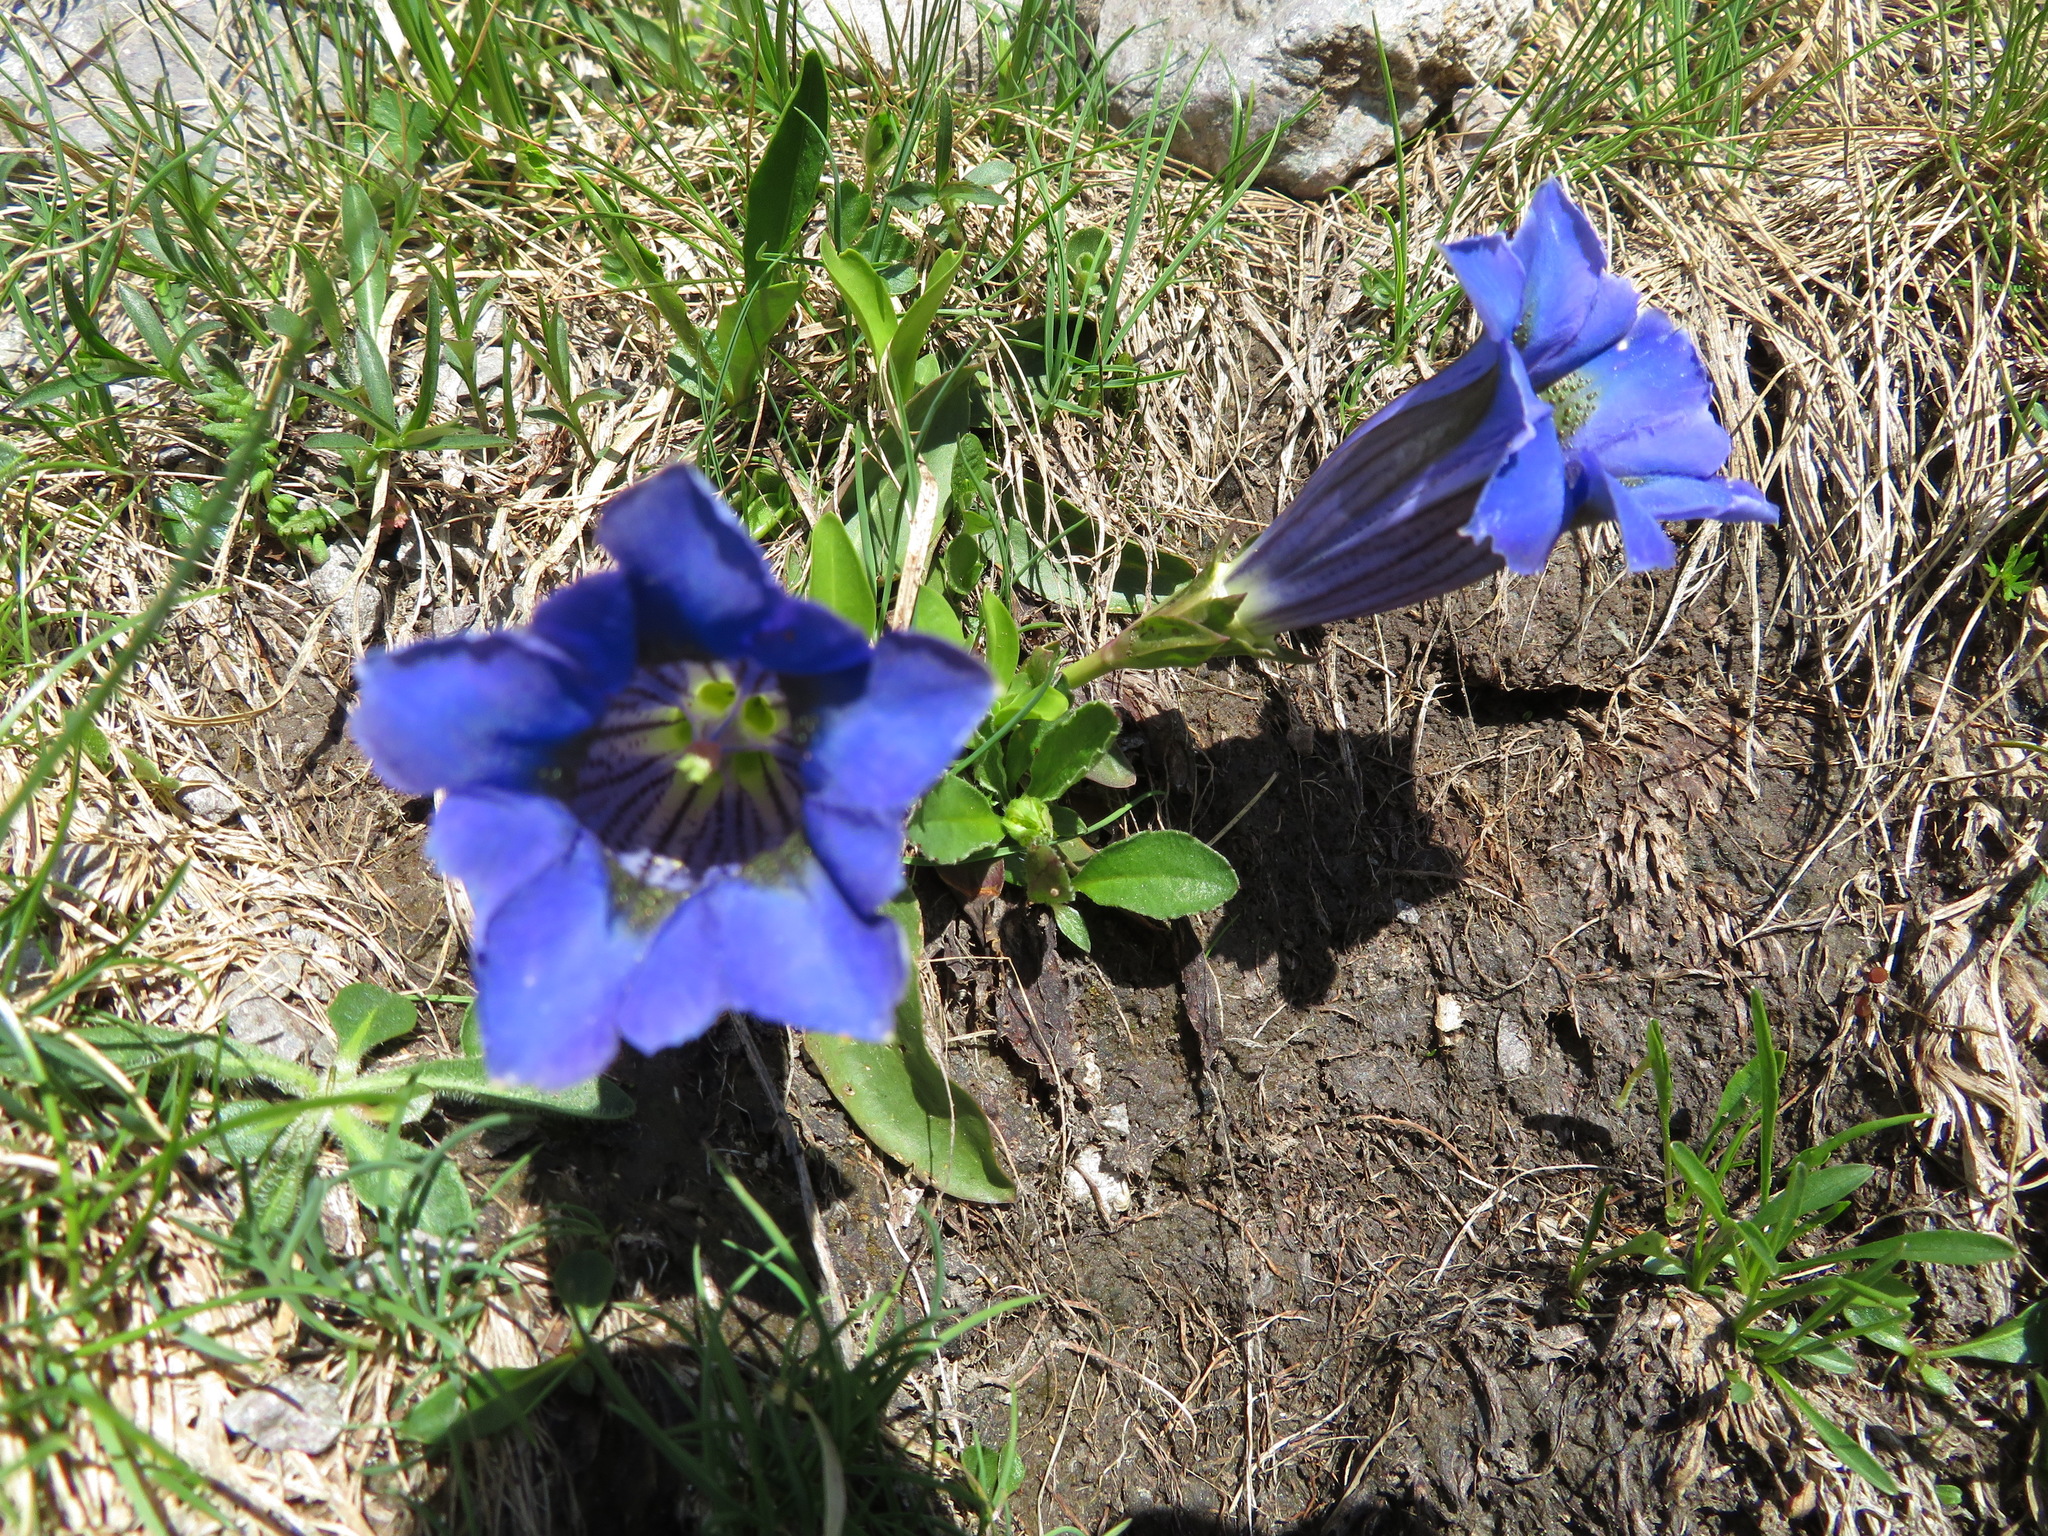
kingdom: Plantae
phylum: Tracheophyta
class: Magnoliopsida
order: Gentianales
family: Gentianaceae
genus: Gentiana
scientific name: Gentiana acaulis
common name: Trumpet gentian
